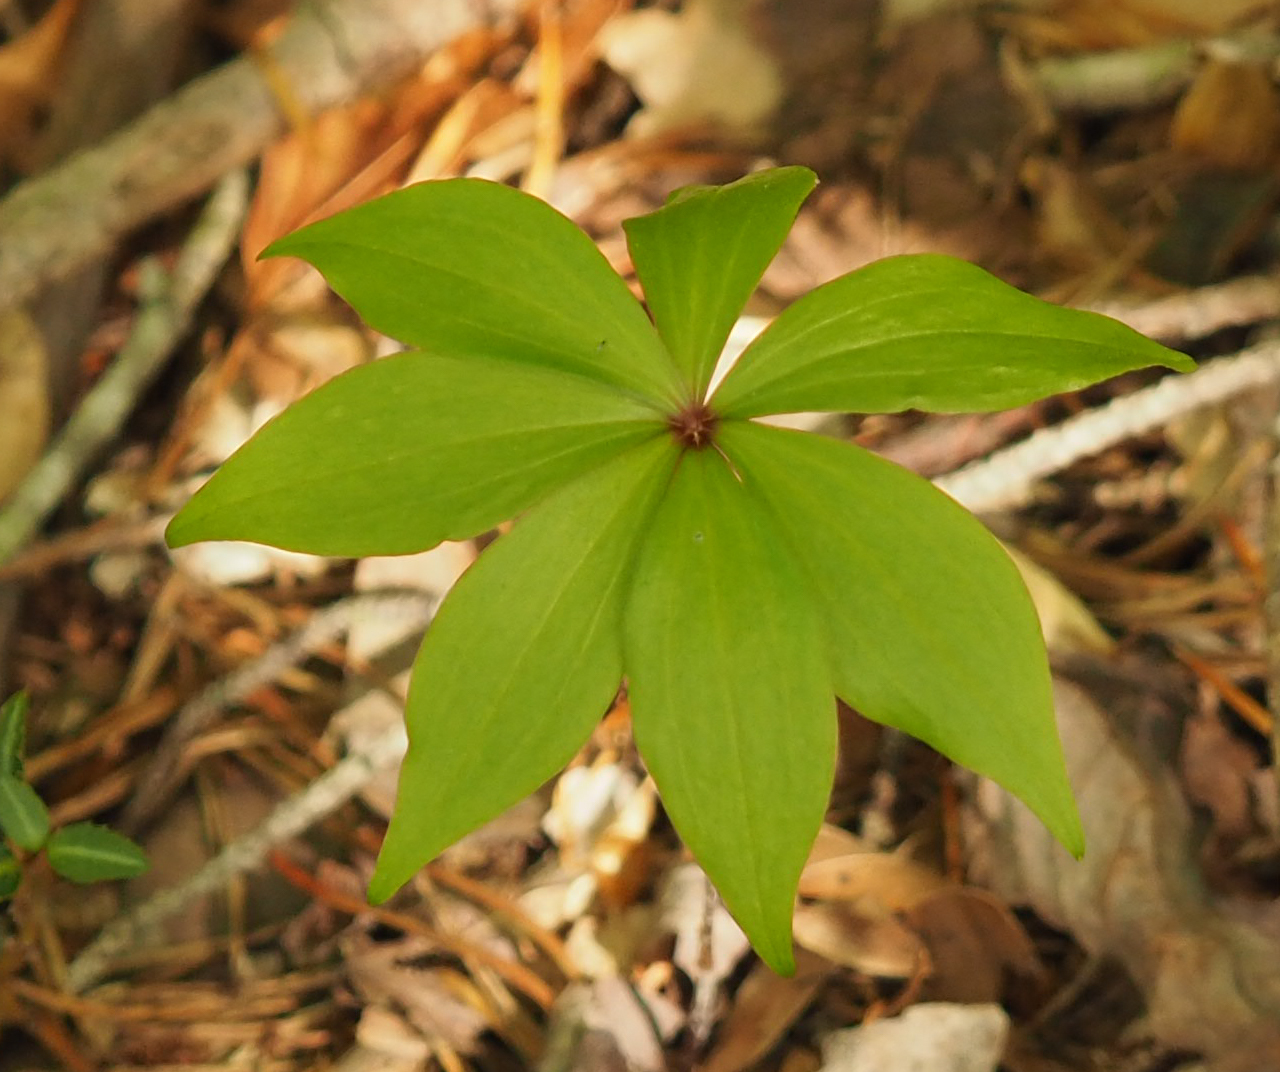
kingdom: Plantae
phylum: Tracheophyta
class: Liliopsida
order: Liliales
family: Liliaceae
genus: Medeola
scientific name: Medeola virginiana
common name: Indian cucumber-root
